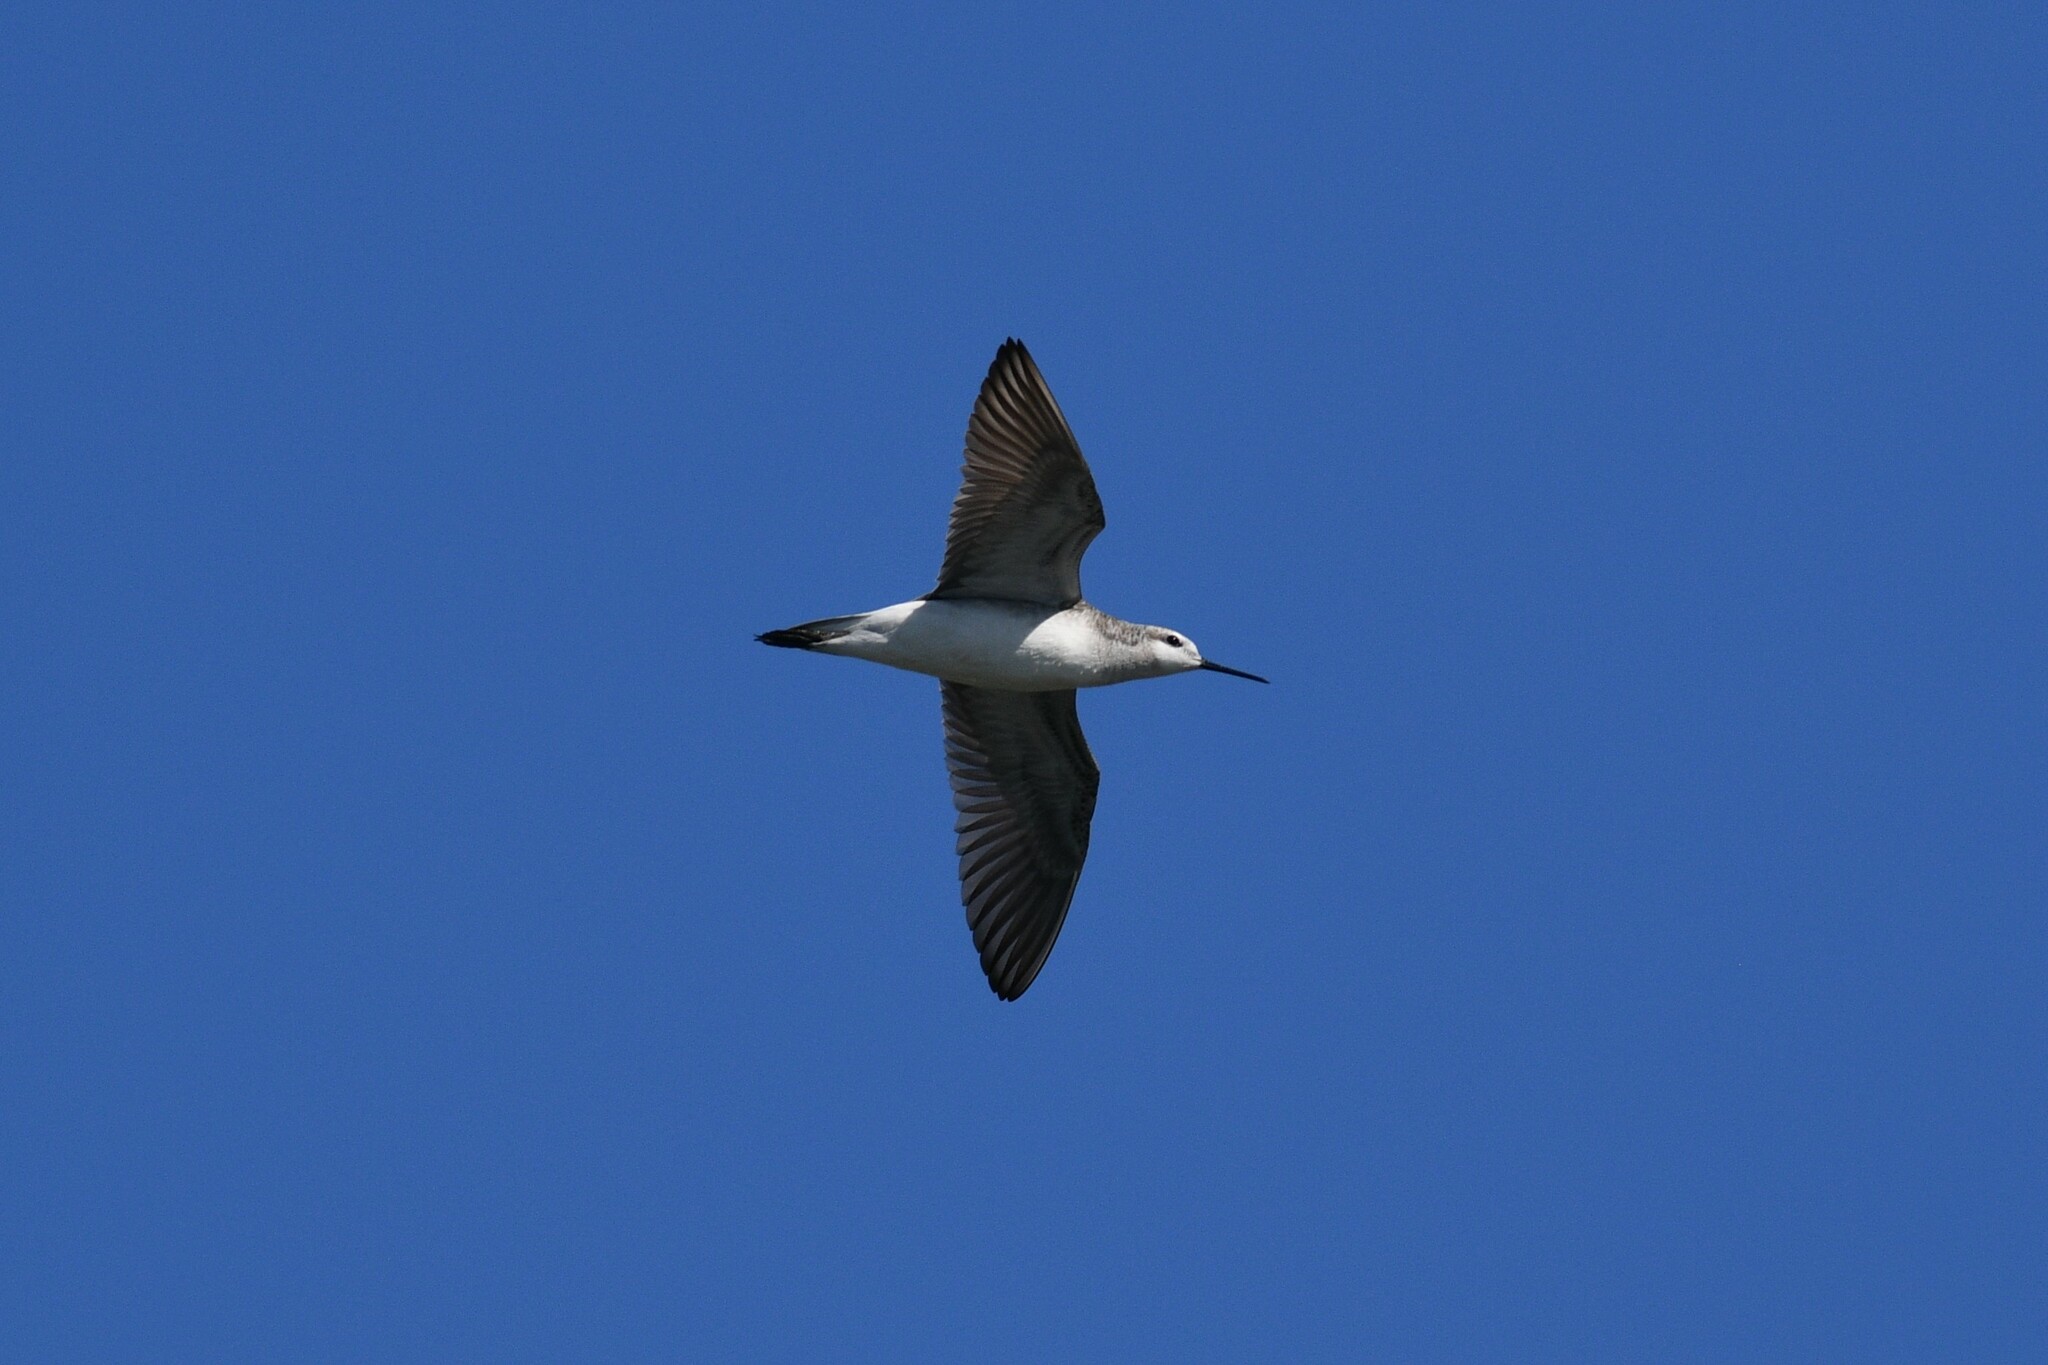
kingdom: Animalia
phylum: Chordata
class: Aves
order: Charadriiformes
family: Scolopacidae
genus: Phalaropus
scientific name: Phalaropus tricolor
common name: Wilson's phalarope
